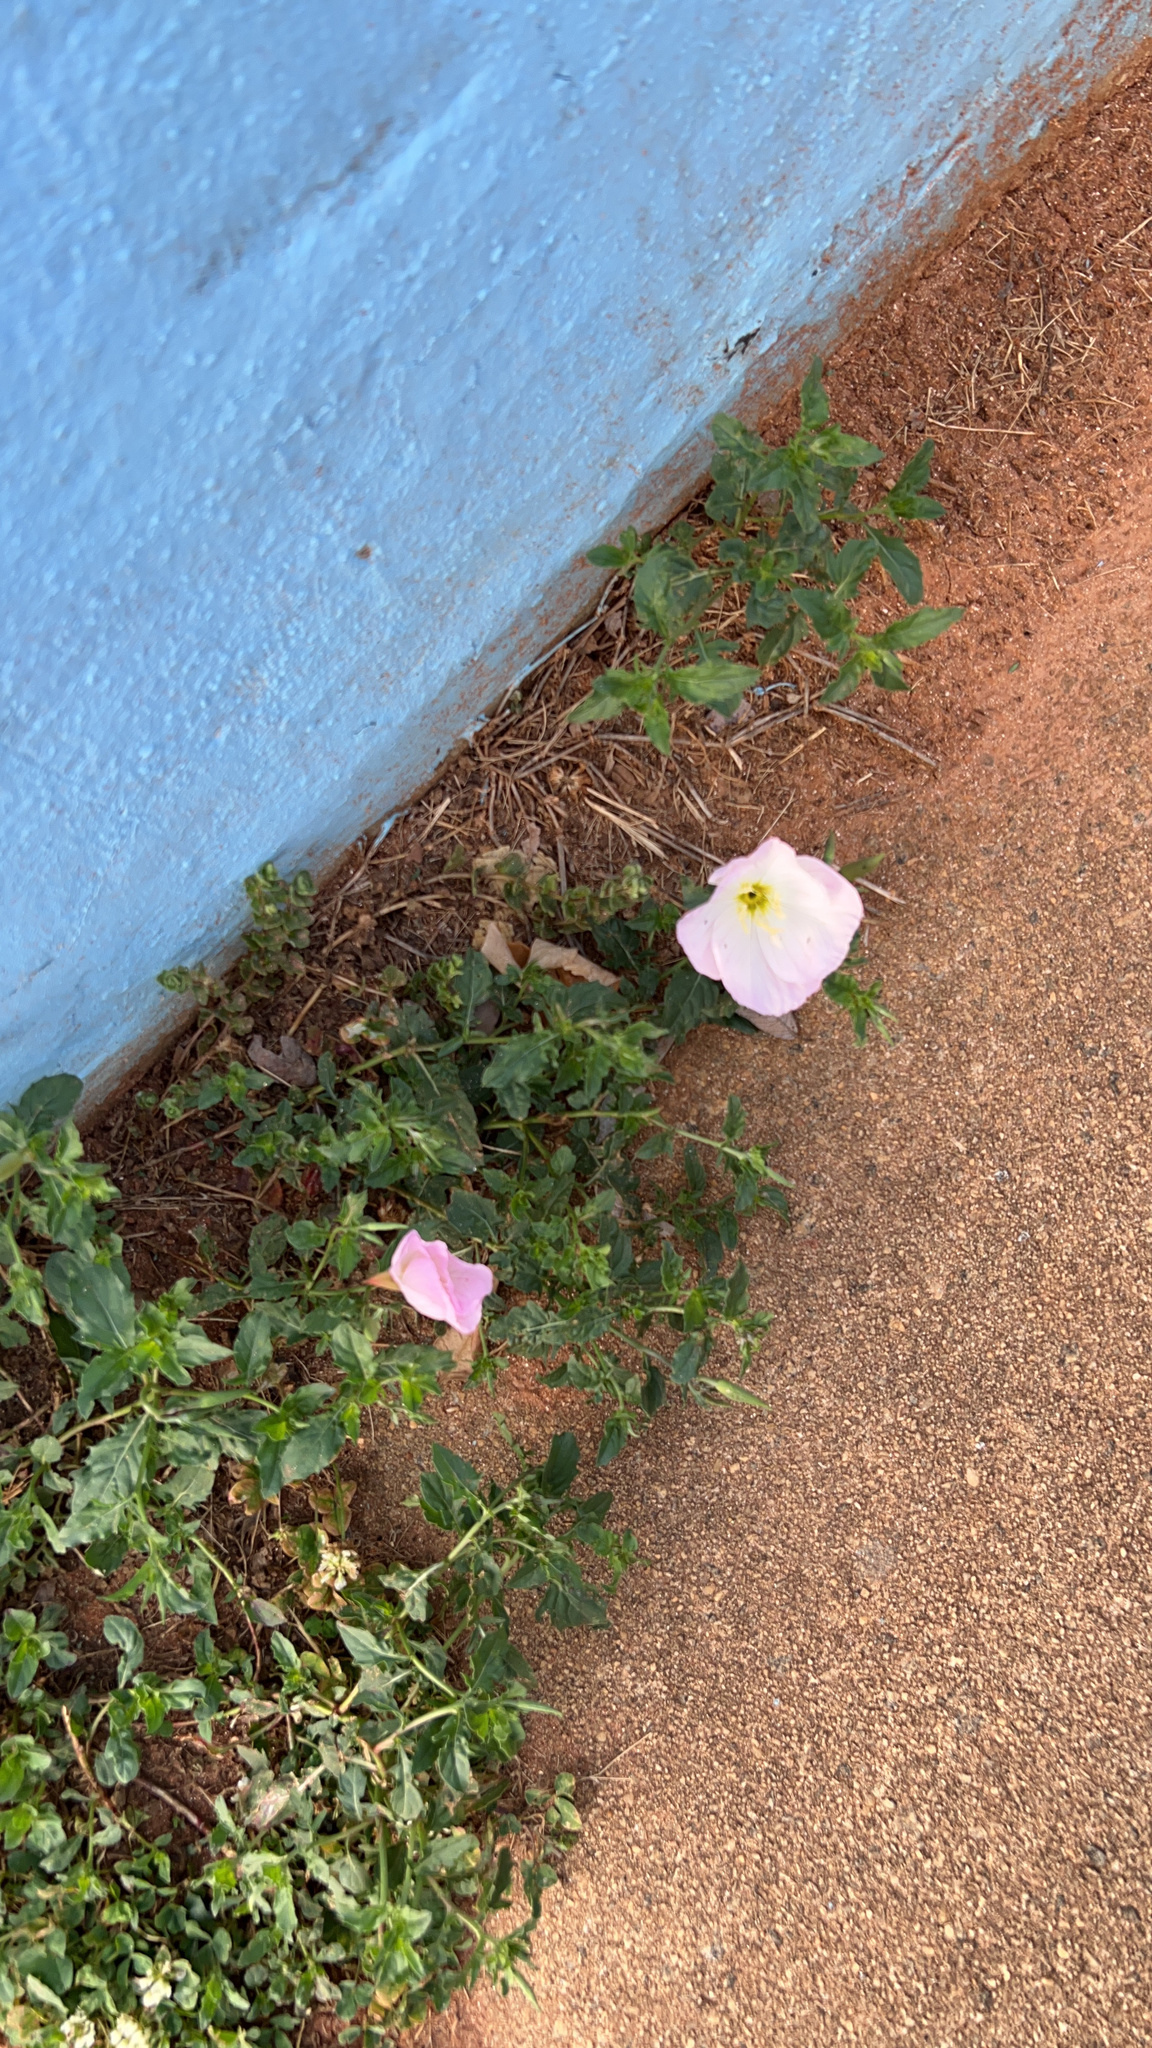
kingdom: Plantae
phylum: Tracheophyta
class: Magnoliopsida
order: Myrtales
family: Onagraceae
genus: Oenothera
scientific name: Oenothera speciosa
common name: White evening-primrose
